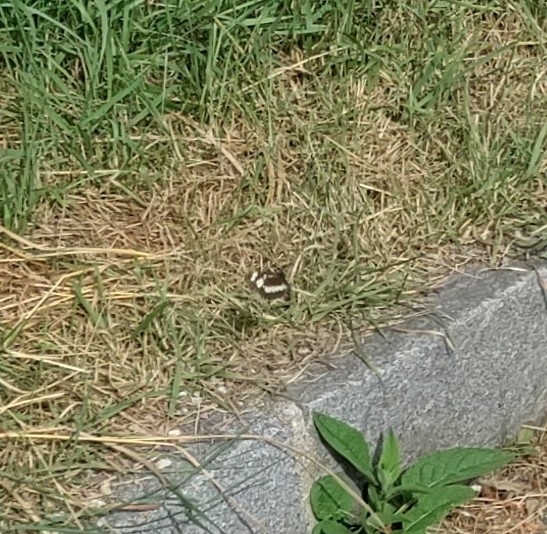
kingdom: Animalia
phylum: Arthropoda
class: Insecta
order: Lepidoptera
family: Nymphalidae
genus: Neptis
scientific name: Neptis rivularis
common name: Hungarian glider
